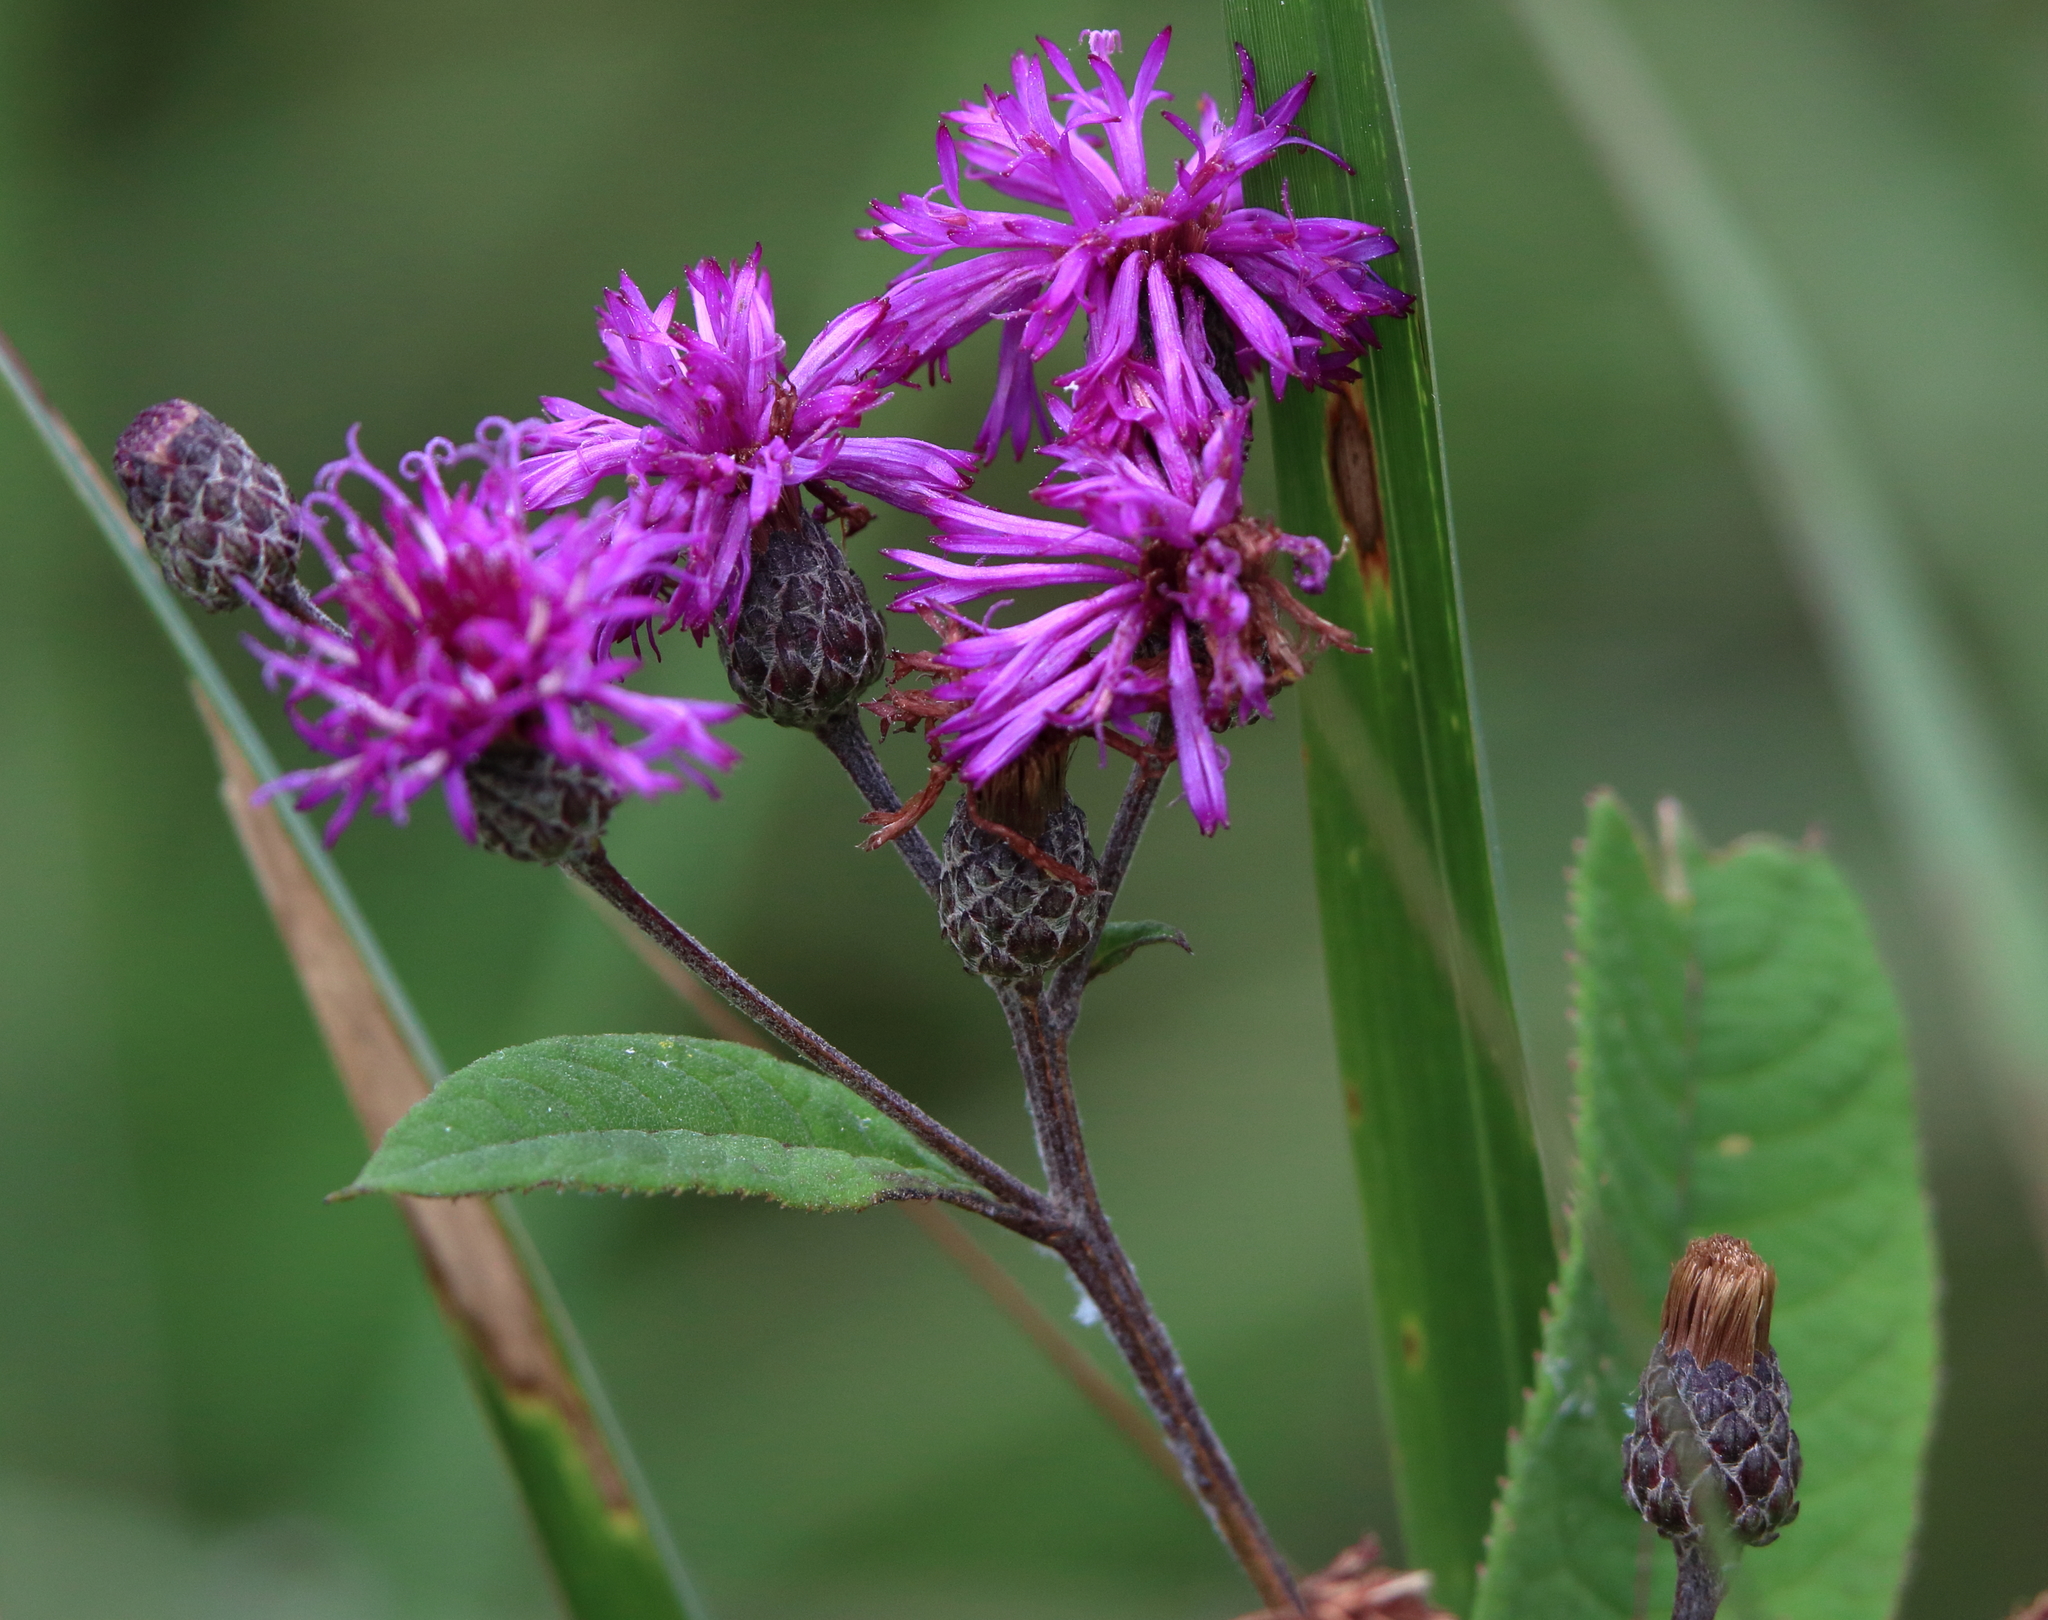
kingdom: Plantae
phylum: Tracheophyta
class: Magnoliopsida
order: Asterales
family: Asteraceae
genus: Vernonia
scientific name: Vernonia gigantea
